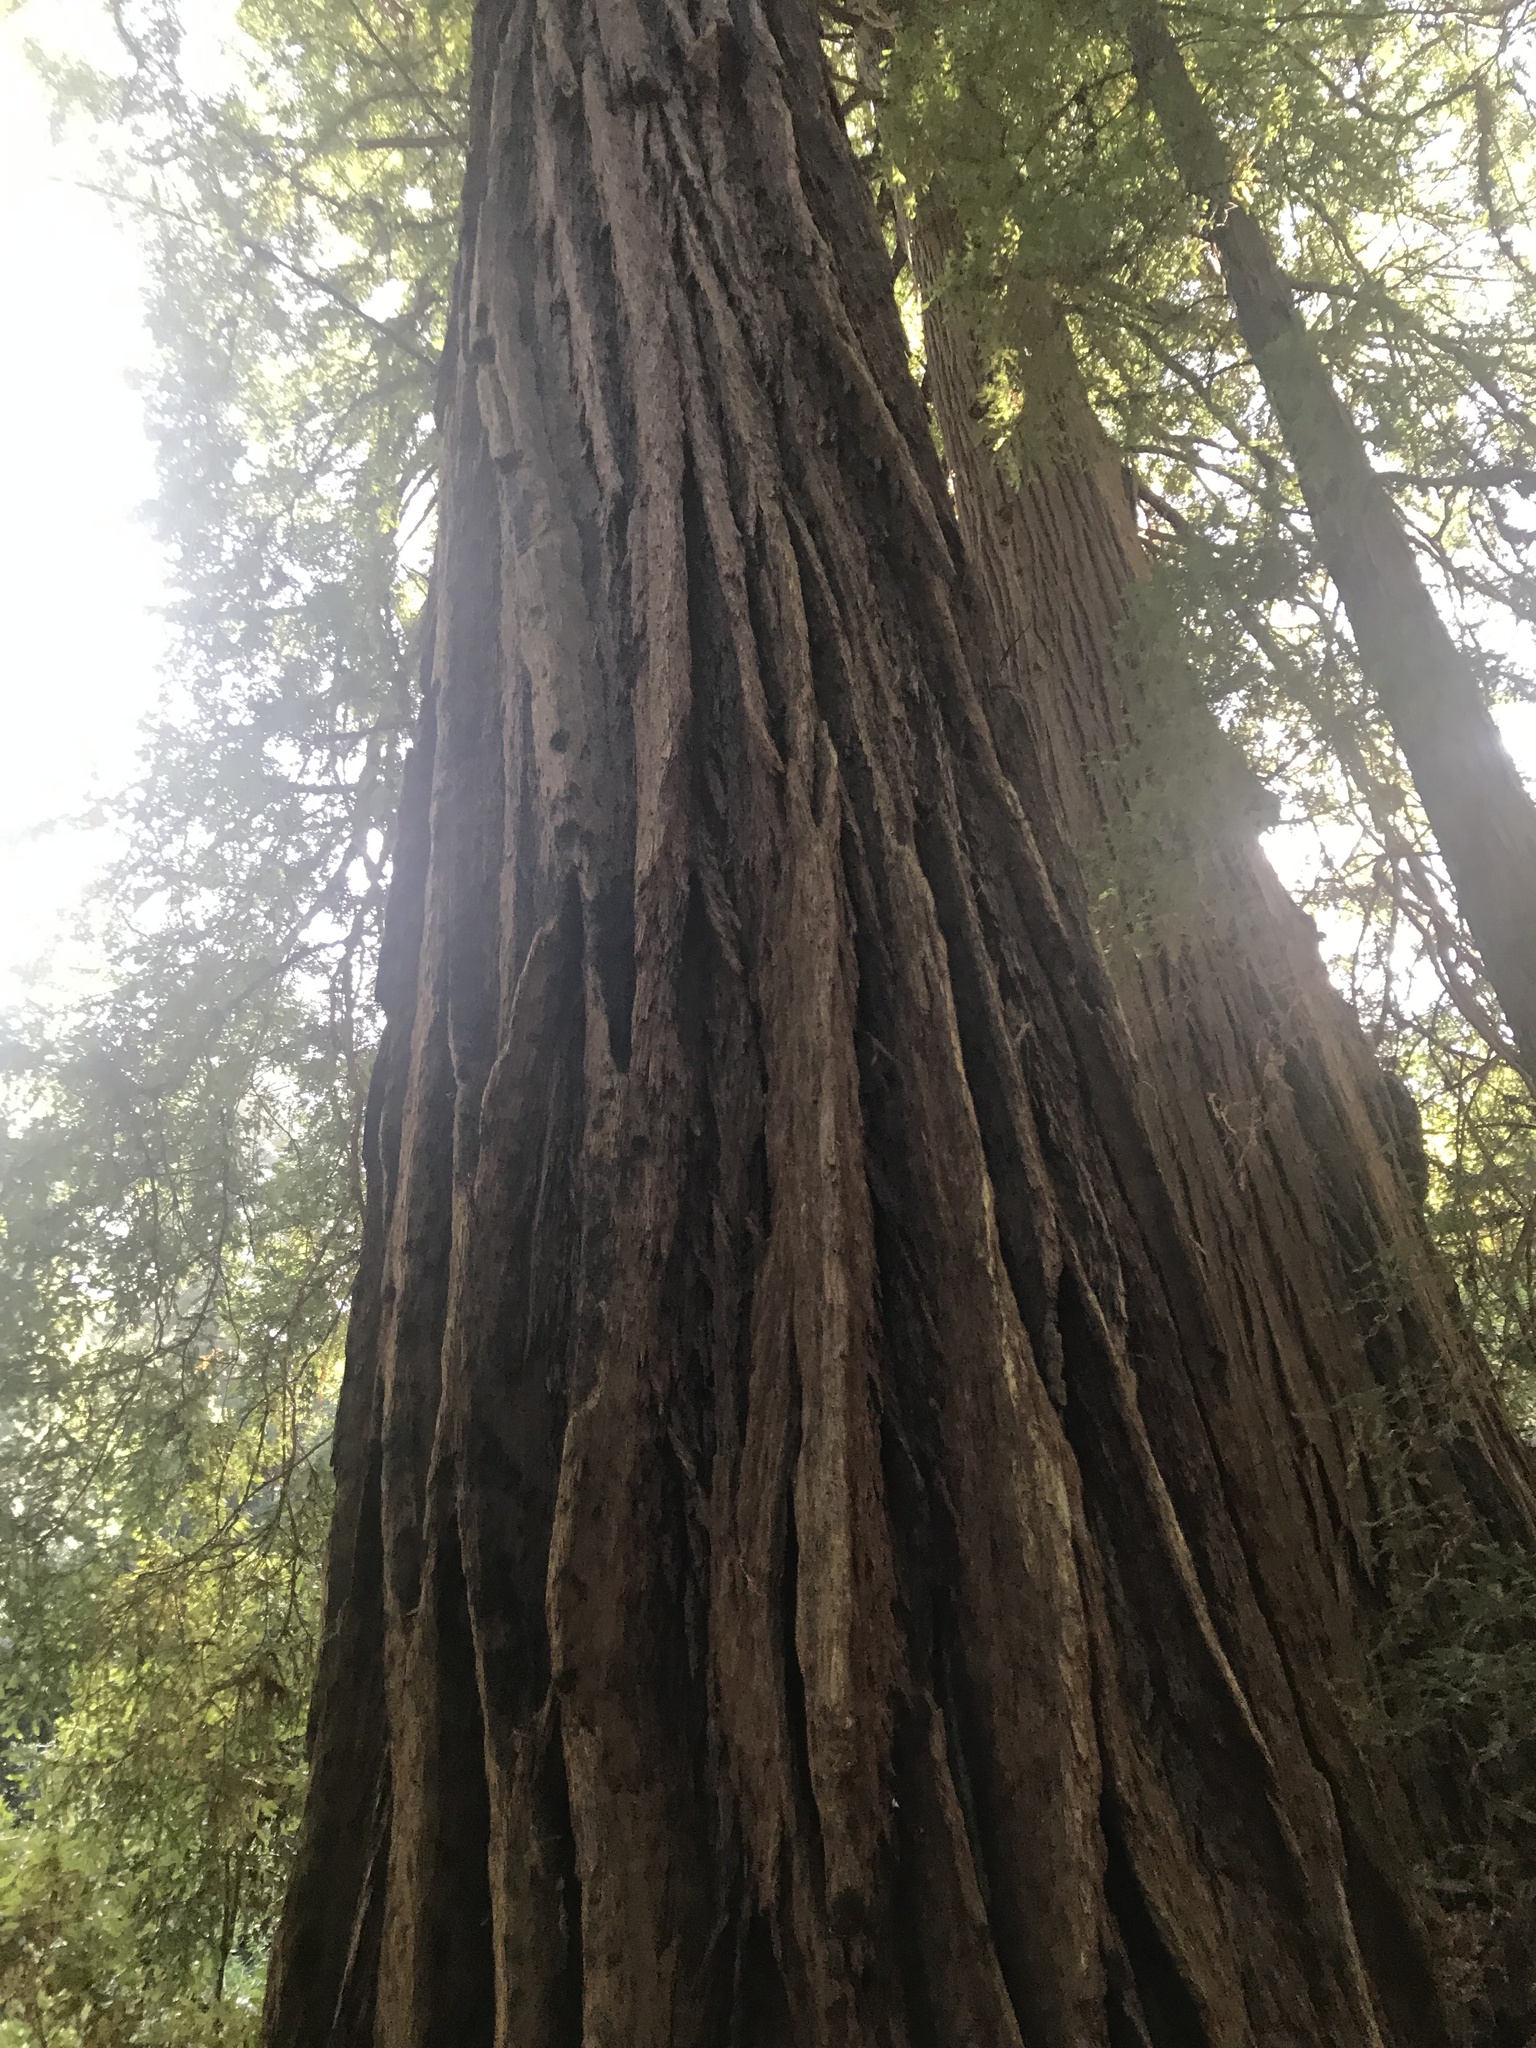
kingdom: Plantae
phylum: Tracheophyta
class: Pinopsida
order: Pinales
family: Cupressaceae
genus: Sequoia
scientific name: Sequoia sempervirens
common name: Coast redwood
